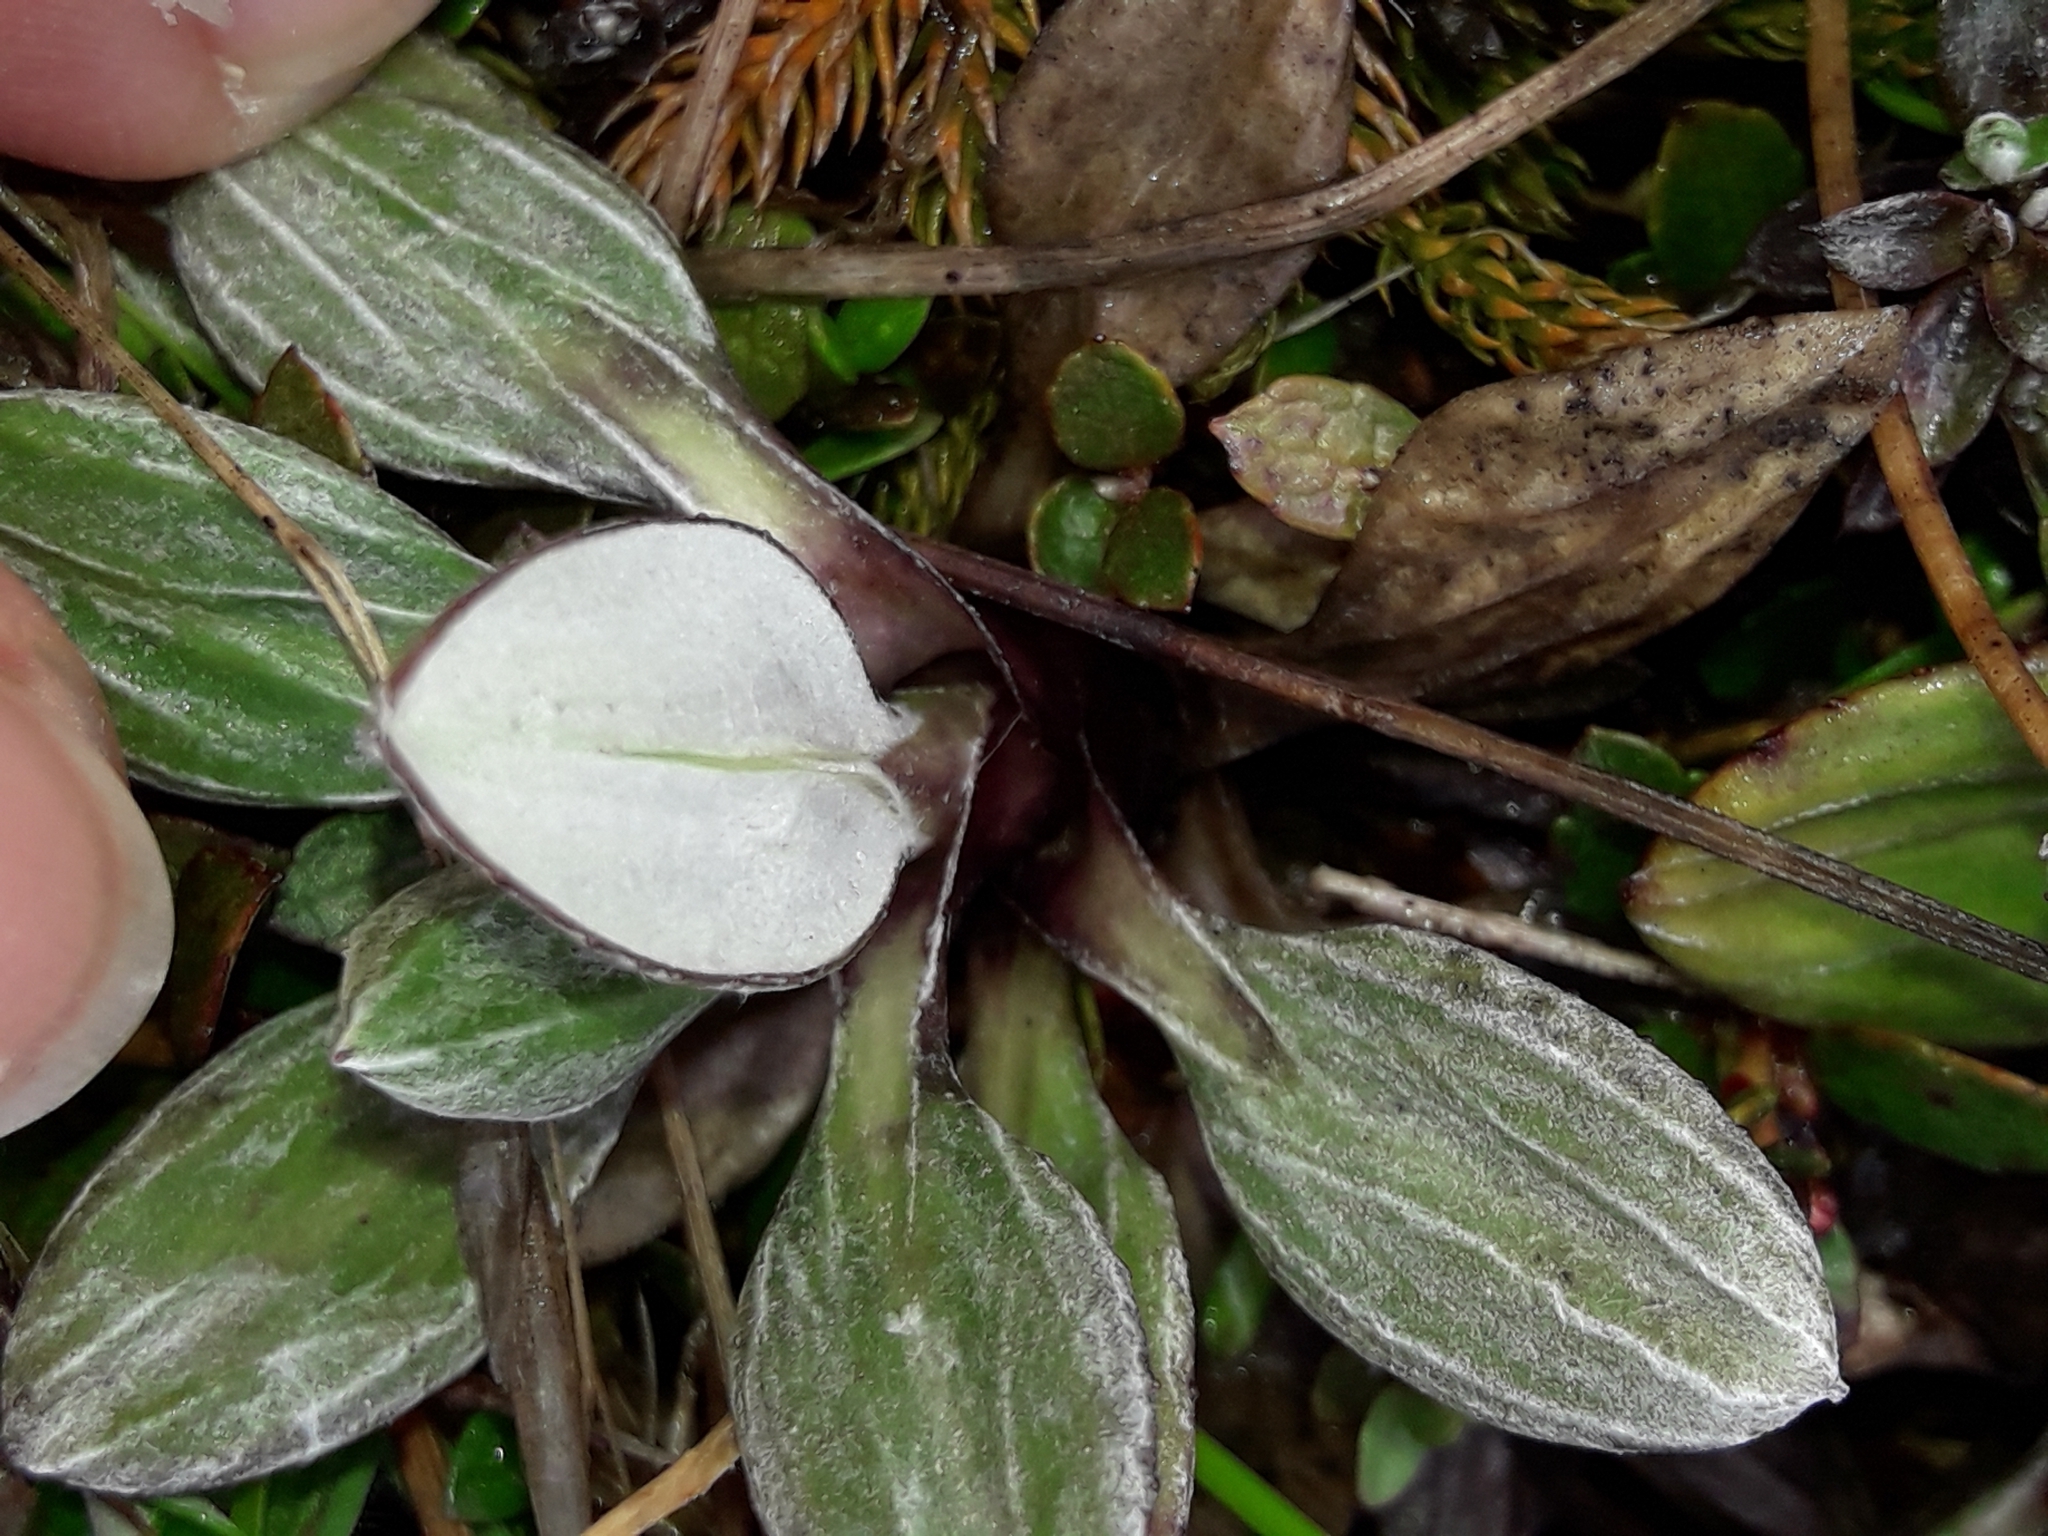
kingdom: Plantae
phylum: Tracheophyta
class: Magnoliopsida
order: Asterales
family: Asteraceae
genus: Celmisia
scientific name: Celmisia haastii
